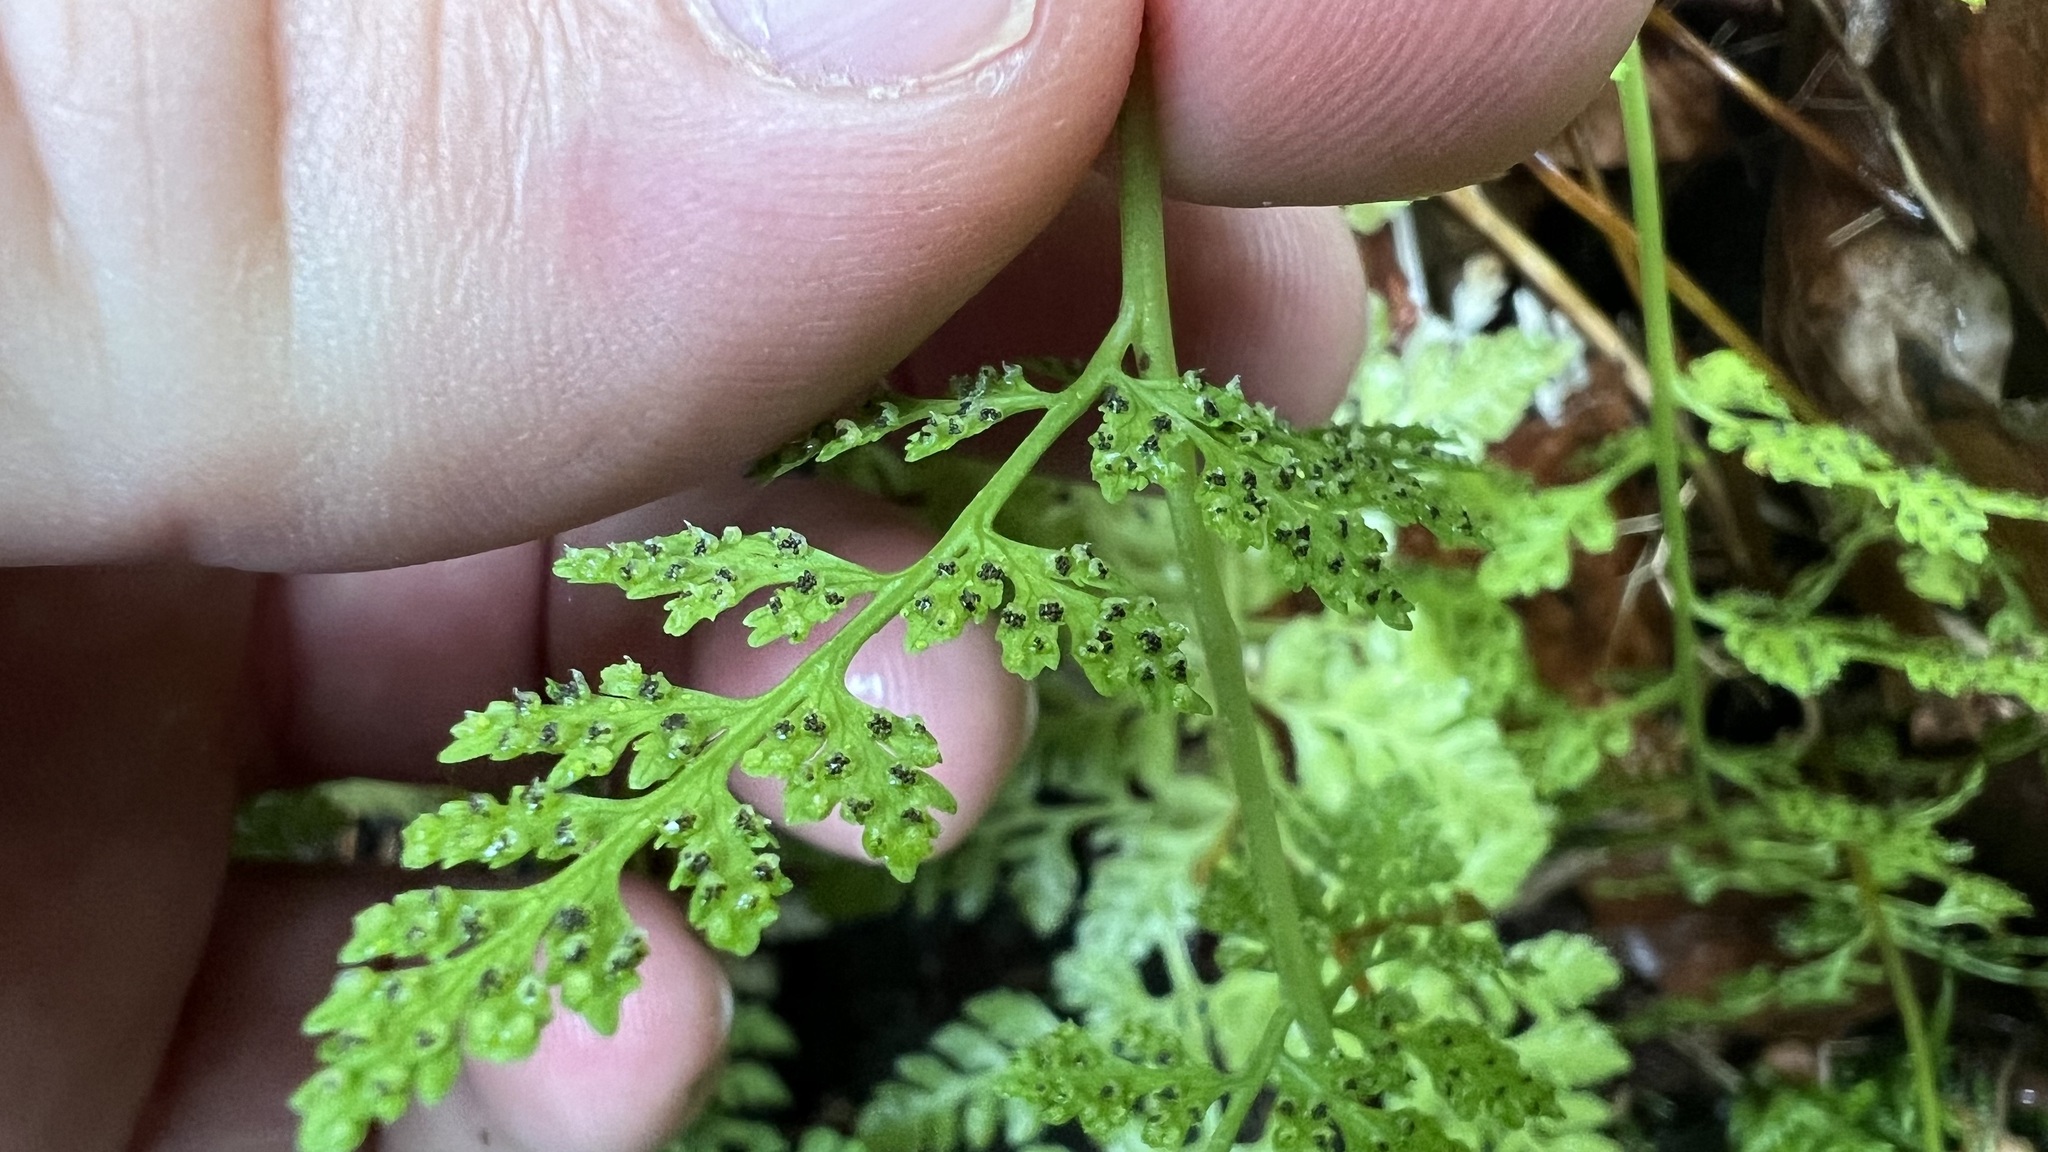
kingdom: Plantae
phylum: Tracheophyta
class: Polypodiopsida
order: Polypodiales
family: Cystopteridaceae
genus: Cystopteris
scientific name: Cystopteris fragilis
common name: Brittle bladder fern
